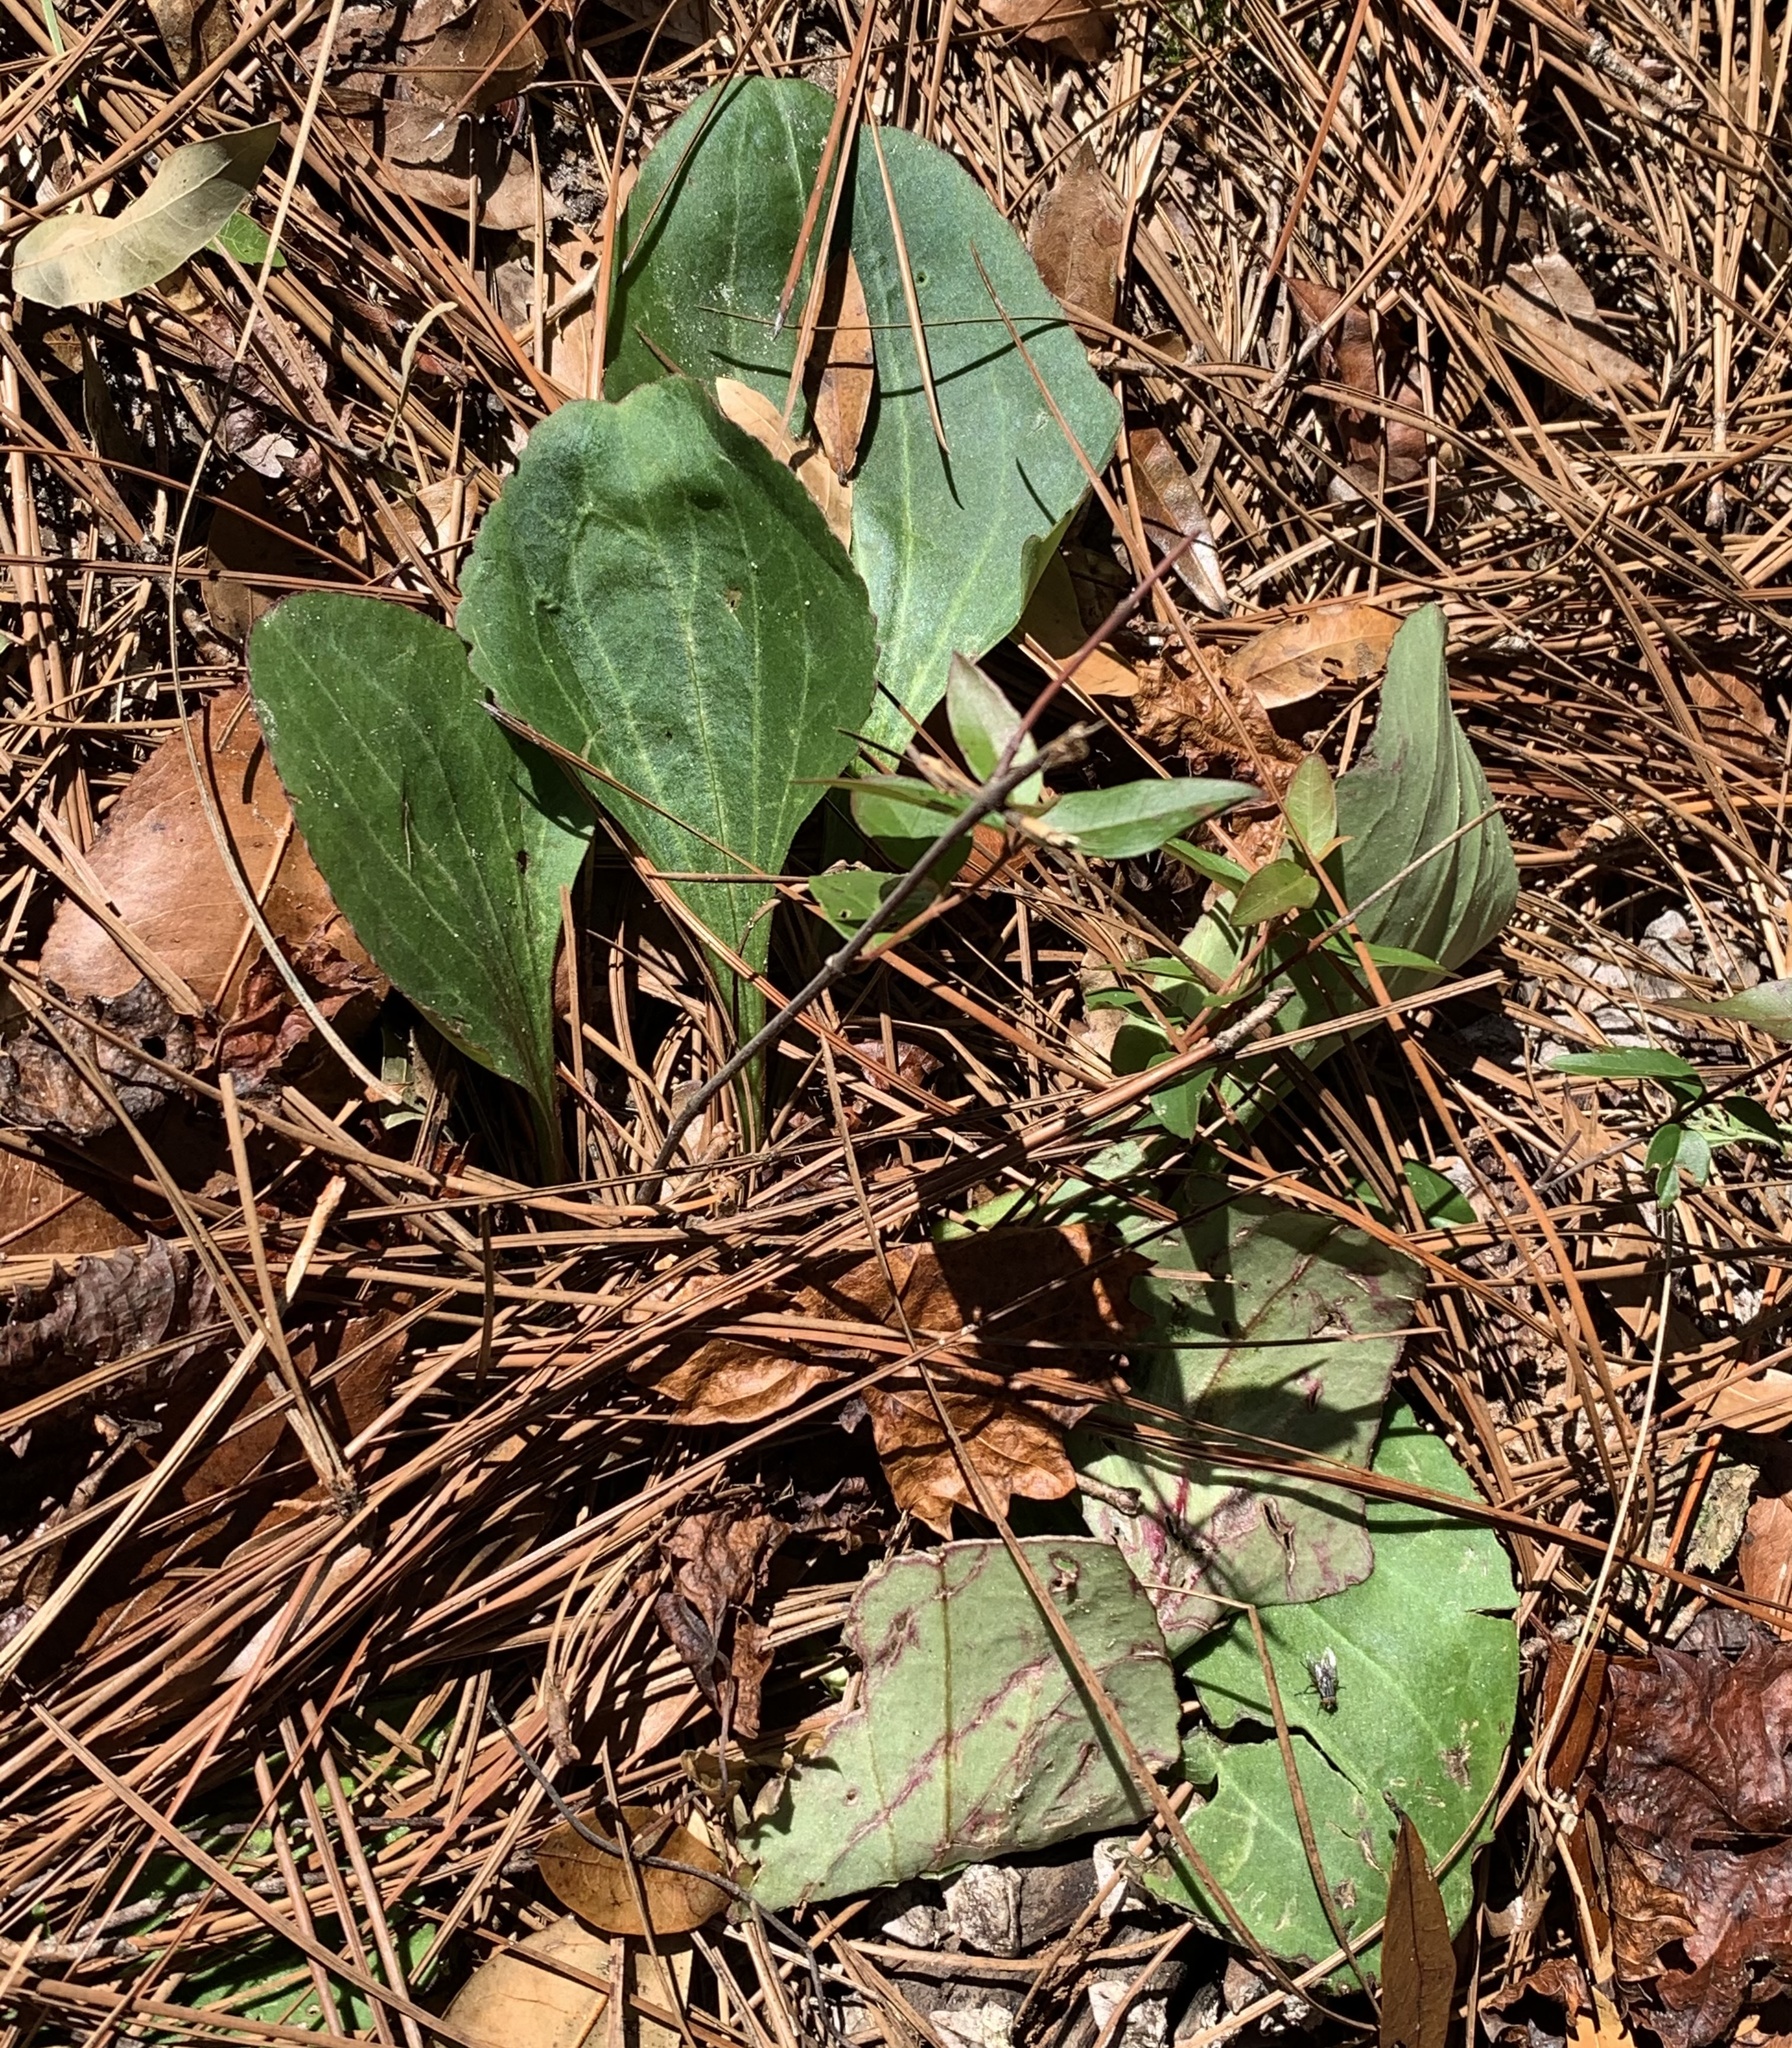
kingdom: Plantae
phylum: Tracheophyta
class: Magnoliopsida
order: Asterales
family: Asteraceae
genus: Arnoglossum
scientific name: Arnoglossum floridanum
